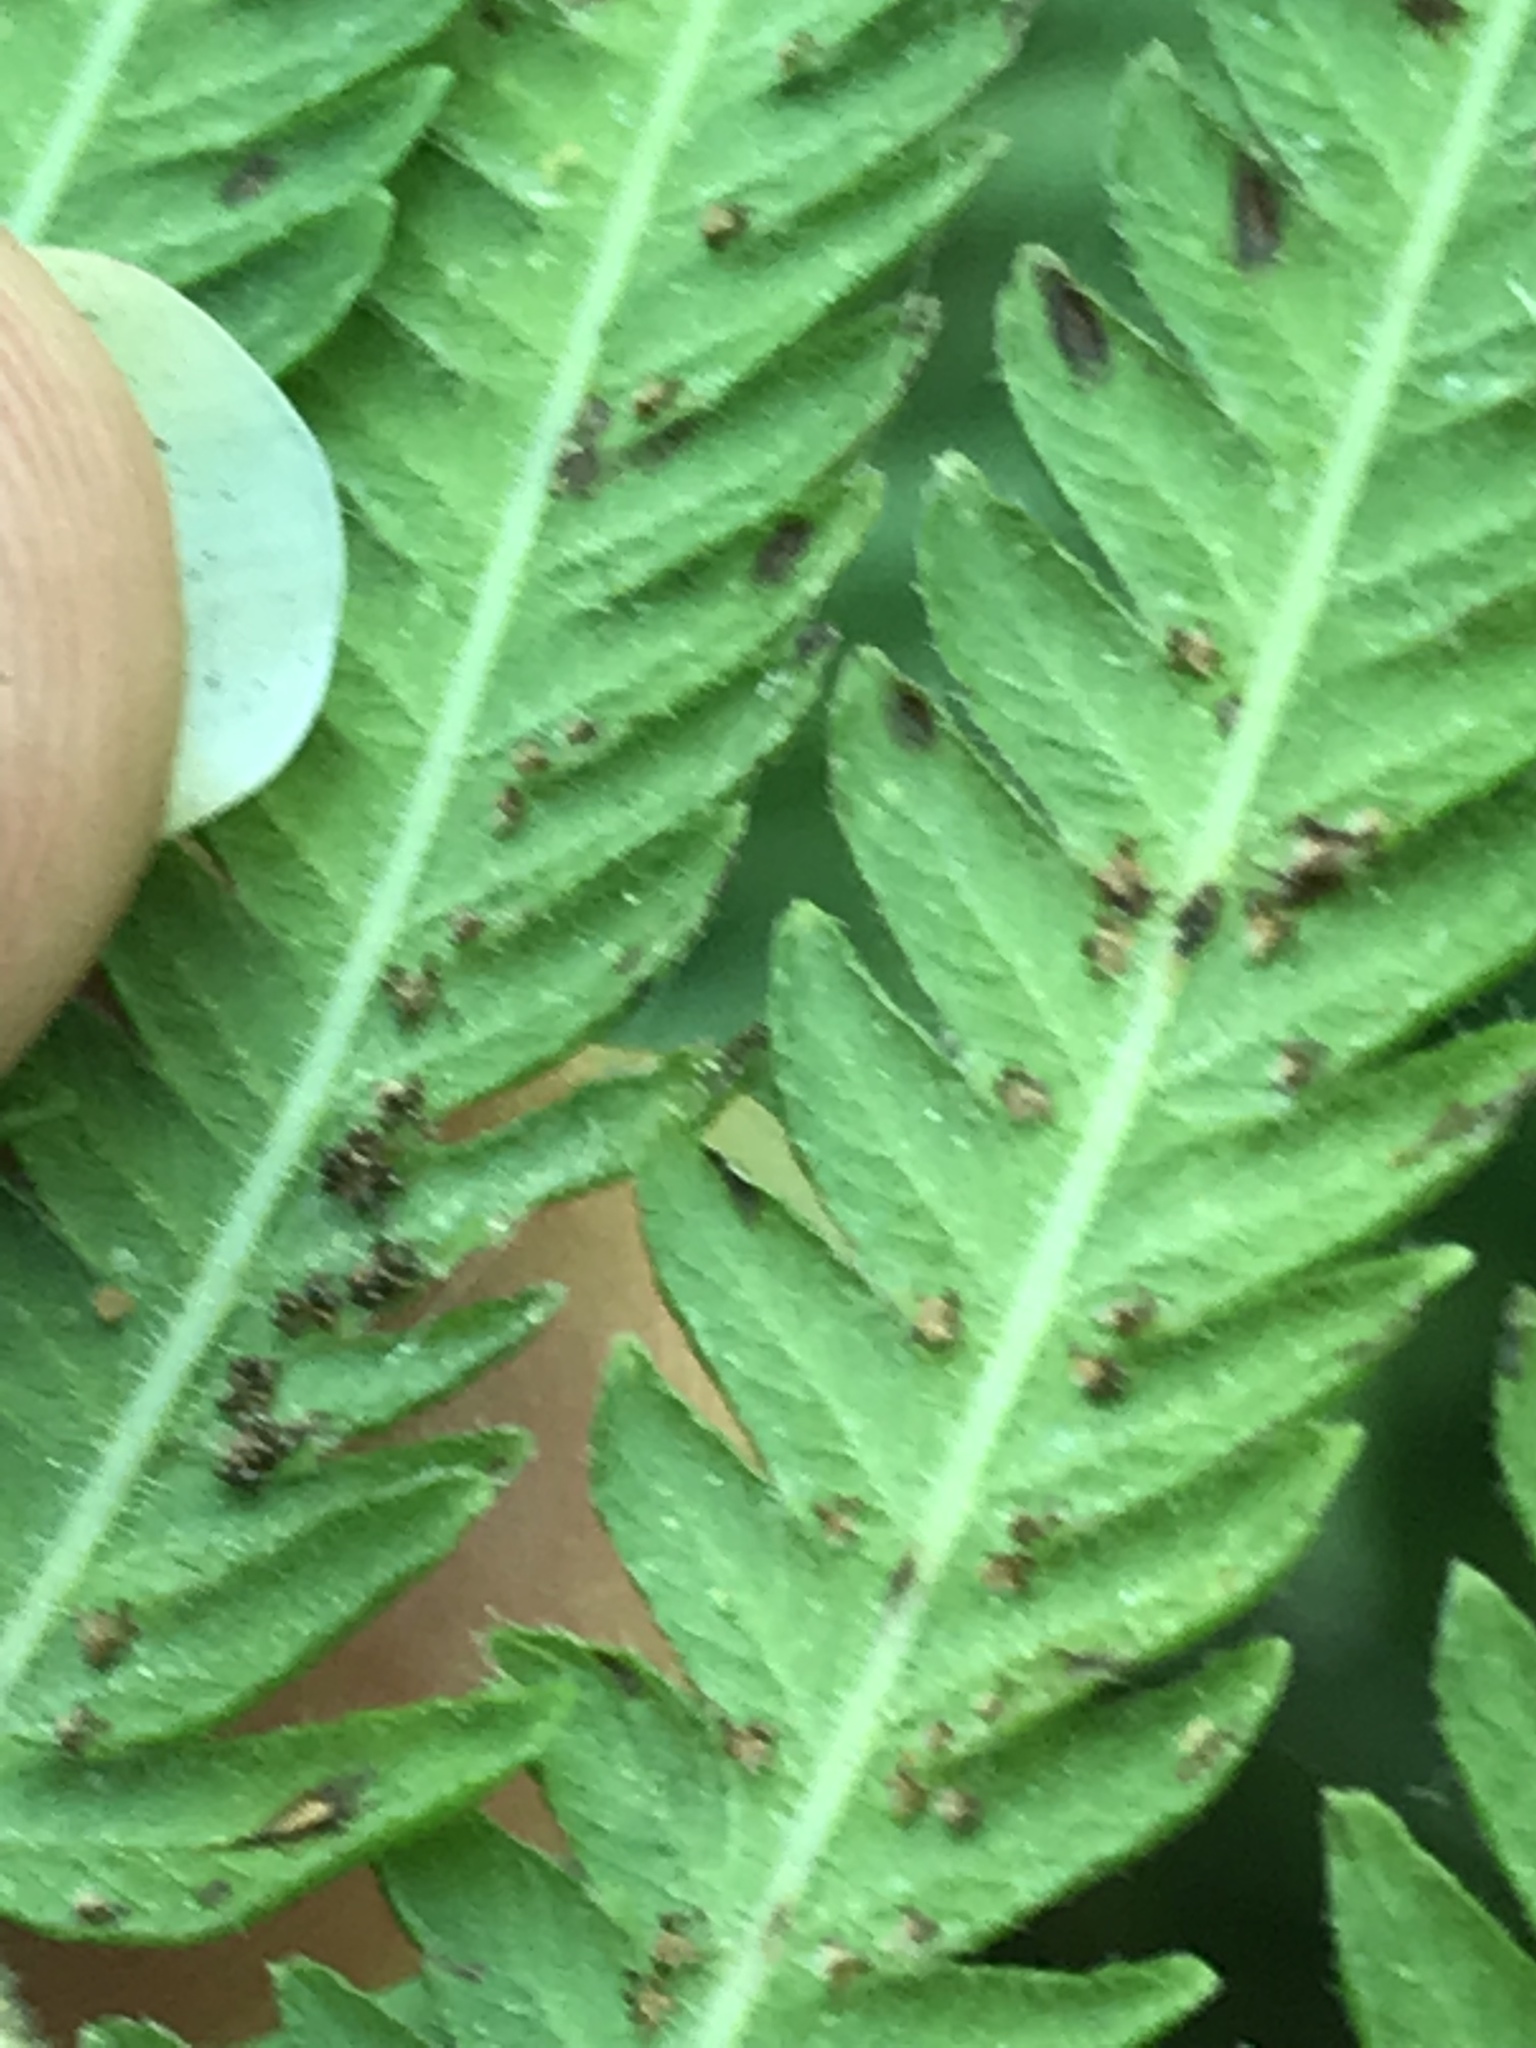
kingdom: Plantae
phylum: Tracheophyta
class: Polypodiopsida
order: Polypodiales
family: Thelypteridaceae
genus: Pelazoneuron
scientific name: Pelazoneuron puberulum
